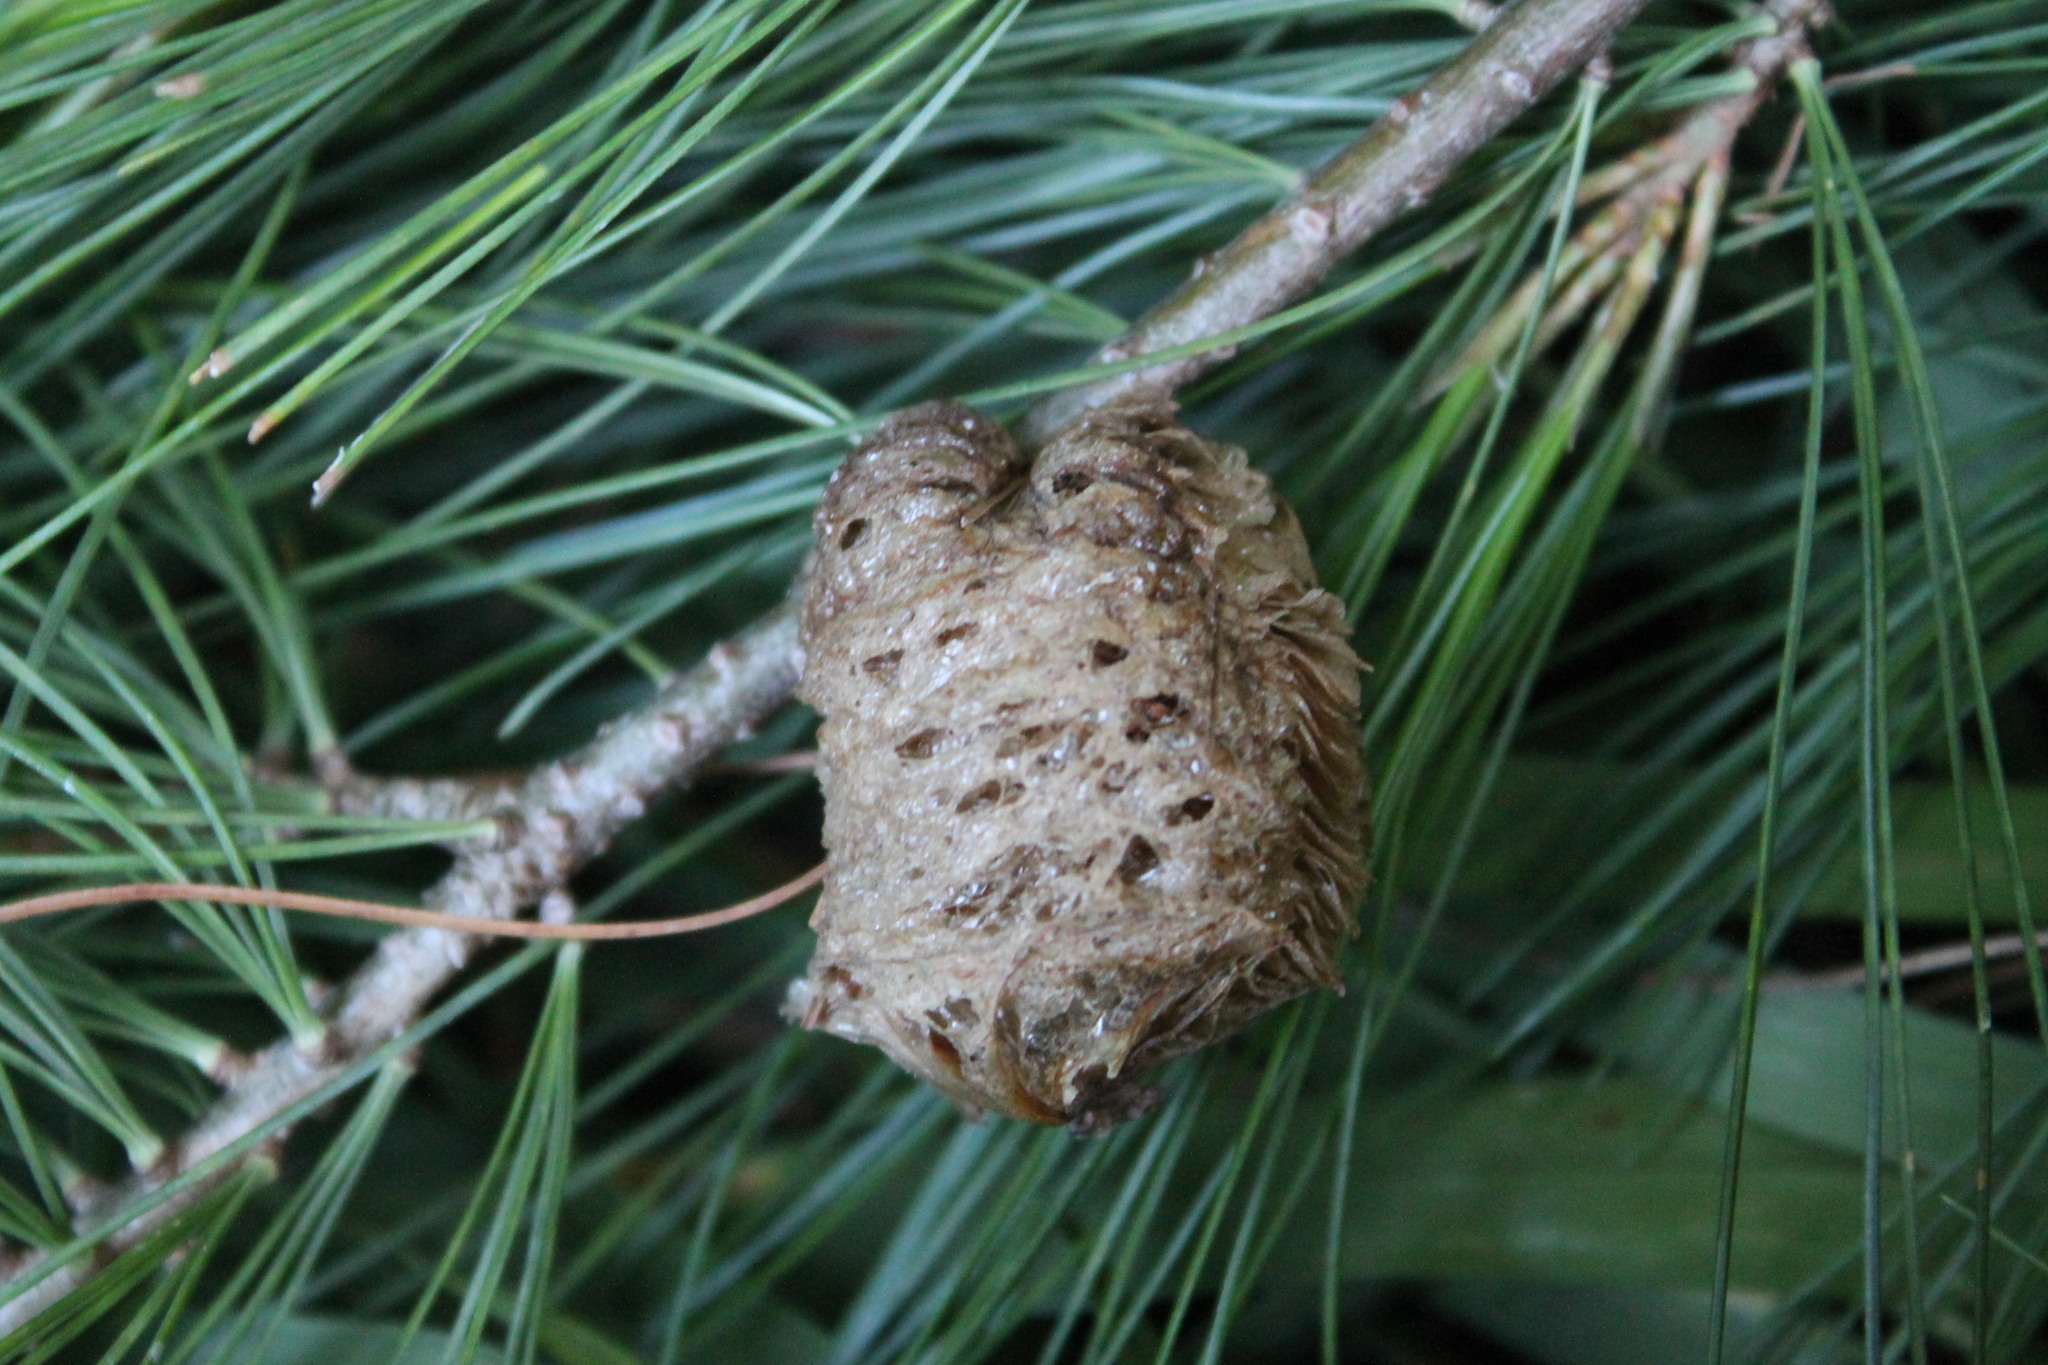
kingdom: Animalia
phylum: Arthropoda
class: Insecta
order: Mantodea
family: Mantidae
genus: Tenodera
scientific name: Tenodera sinensis
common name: Chinese mantis
